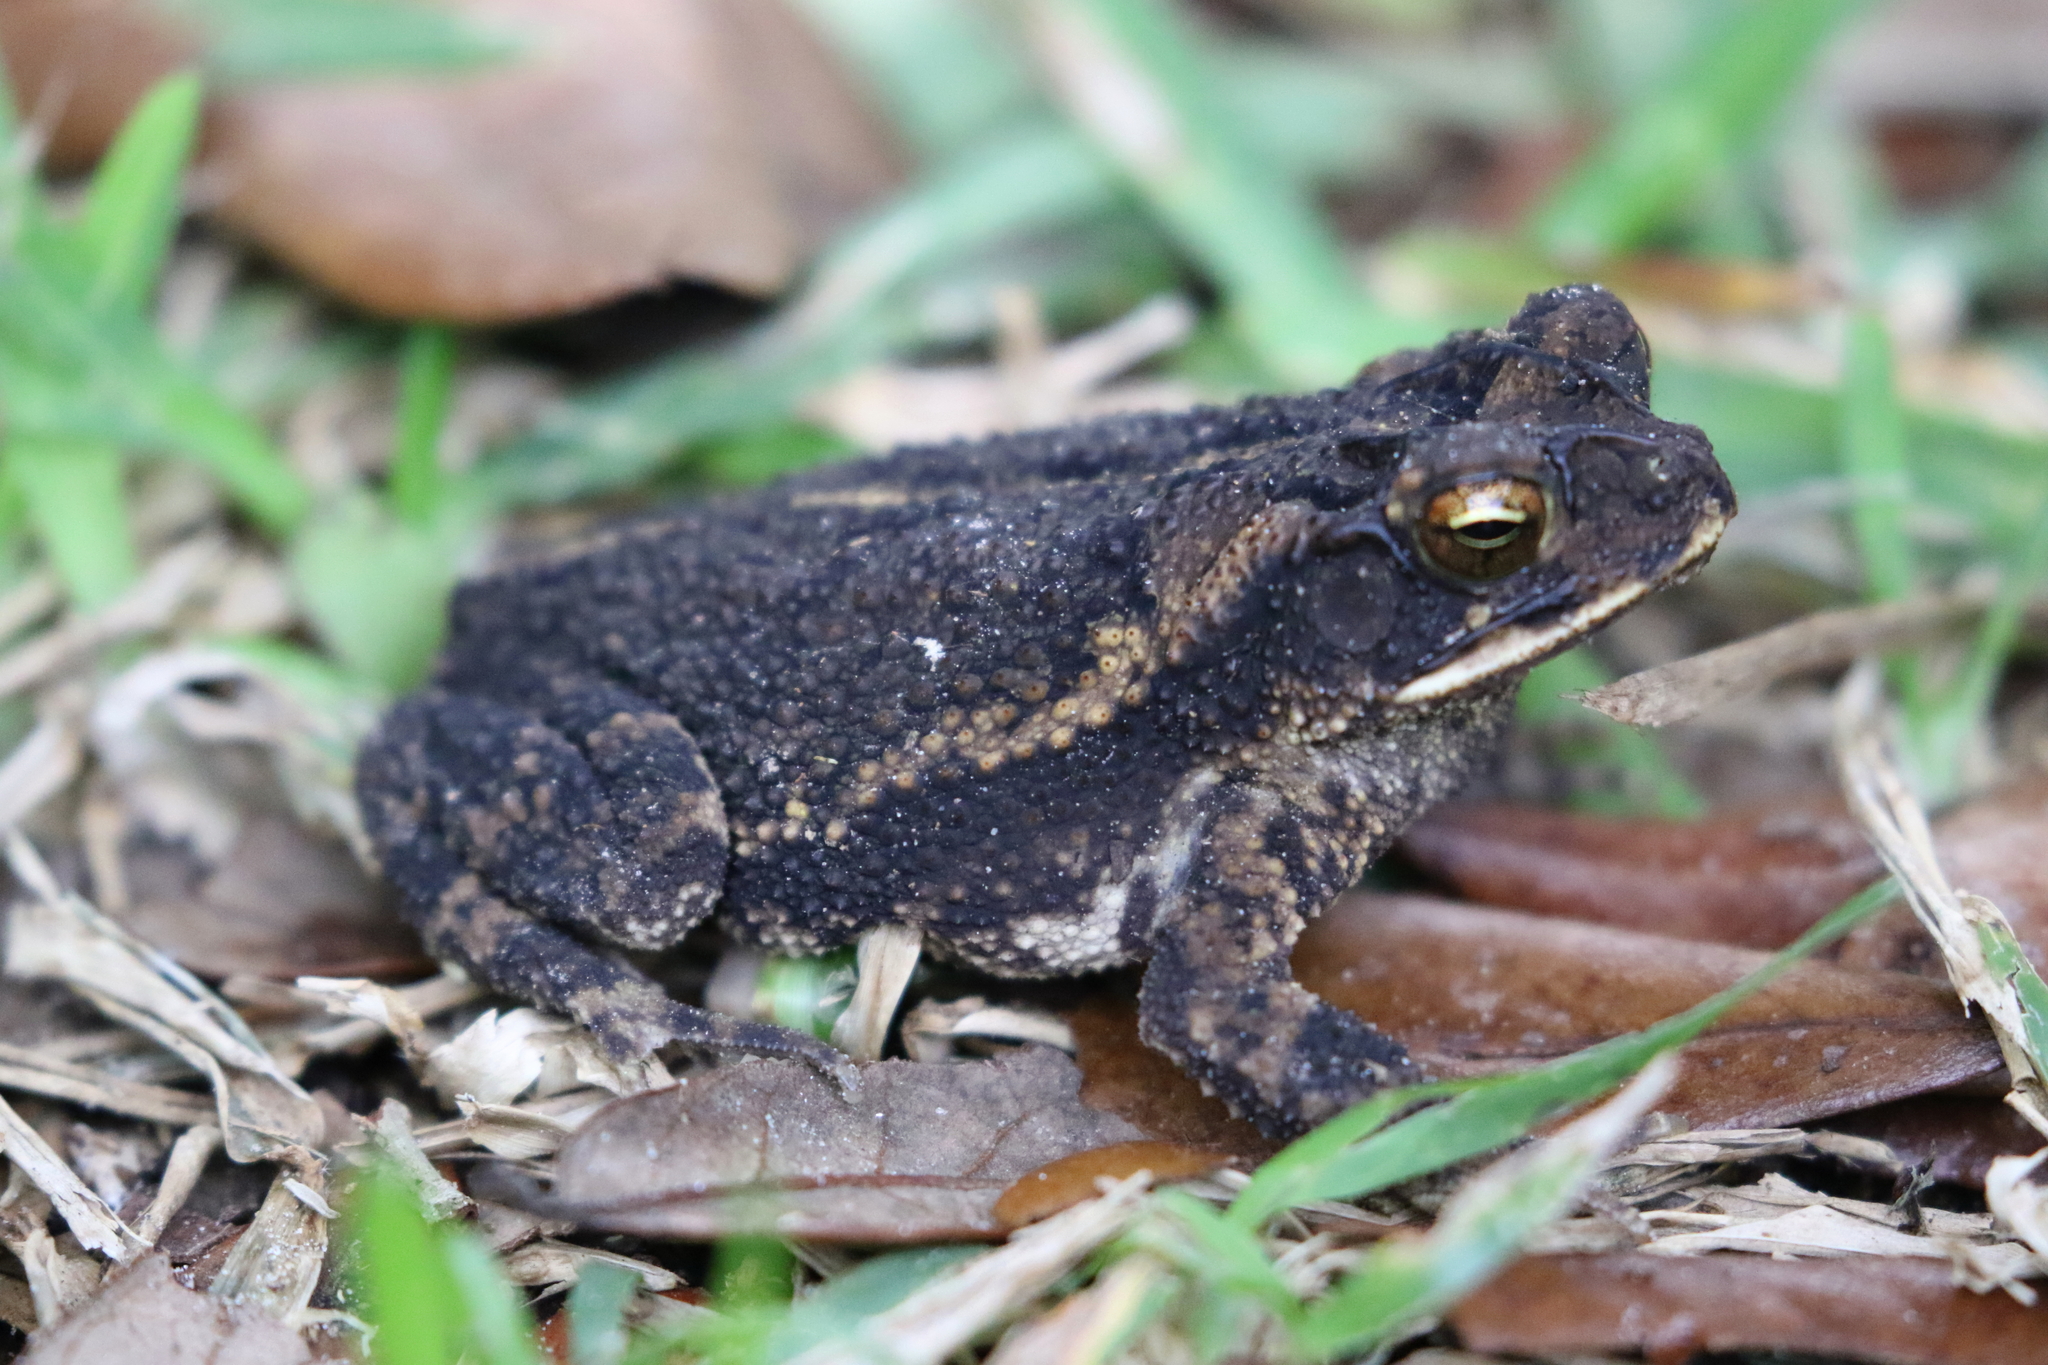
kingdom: Animalia
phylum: Chordata
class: Amphibia
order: Anura
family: Bufonidae
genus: Incilius
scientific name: Incilius nebulifer
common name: Gulf coast toad
